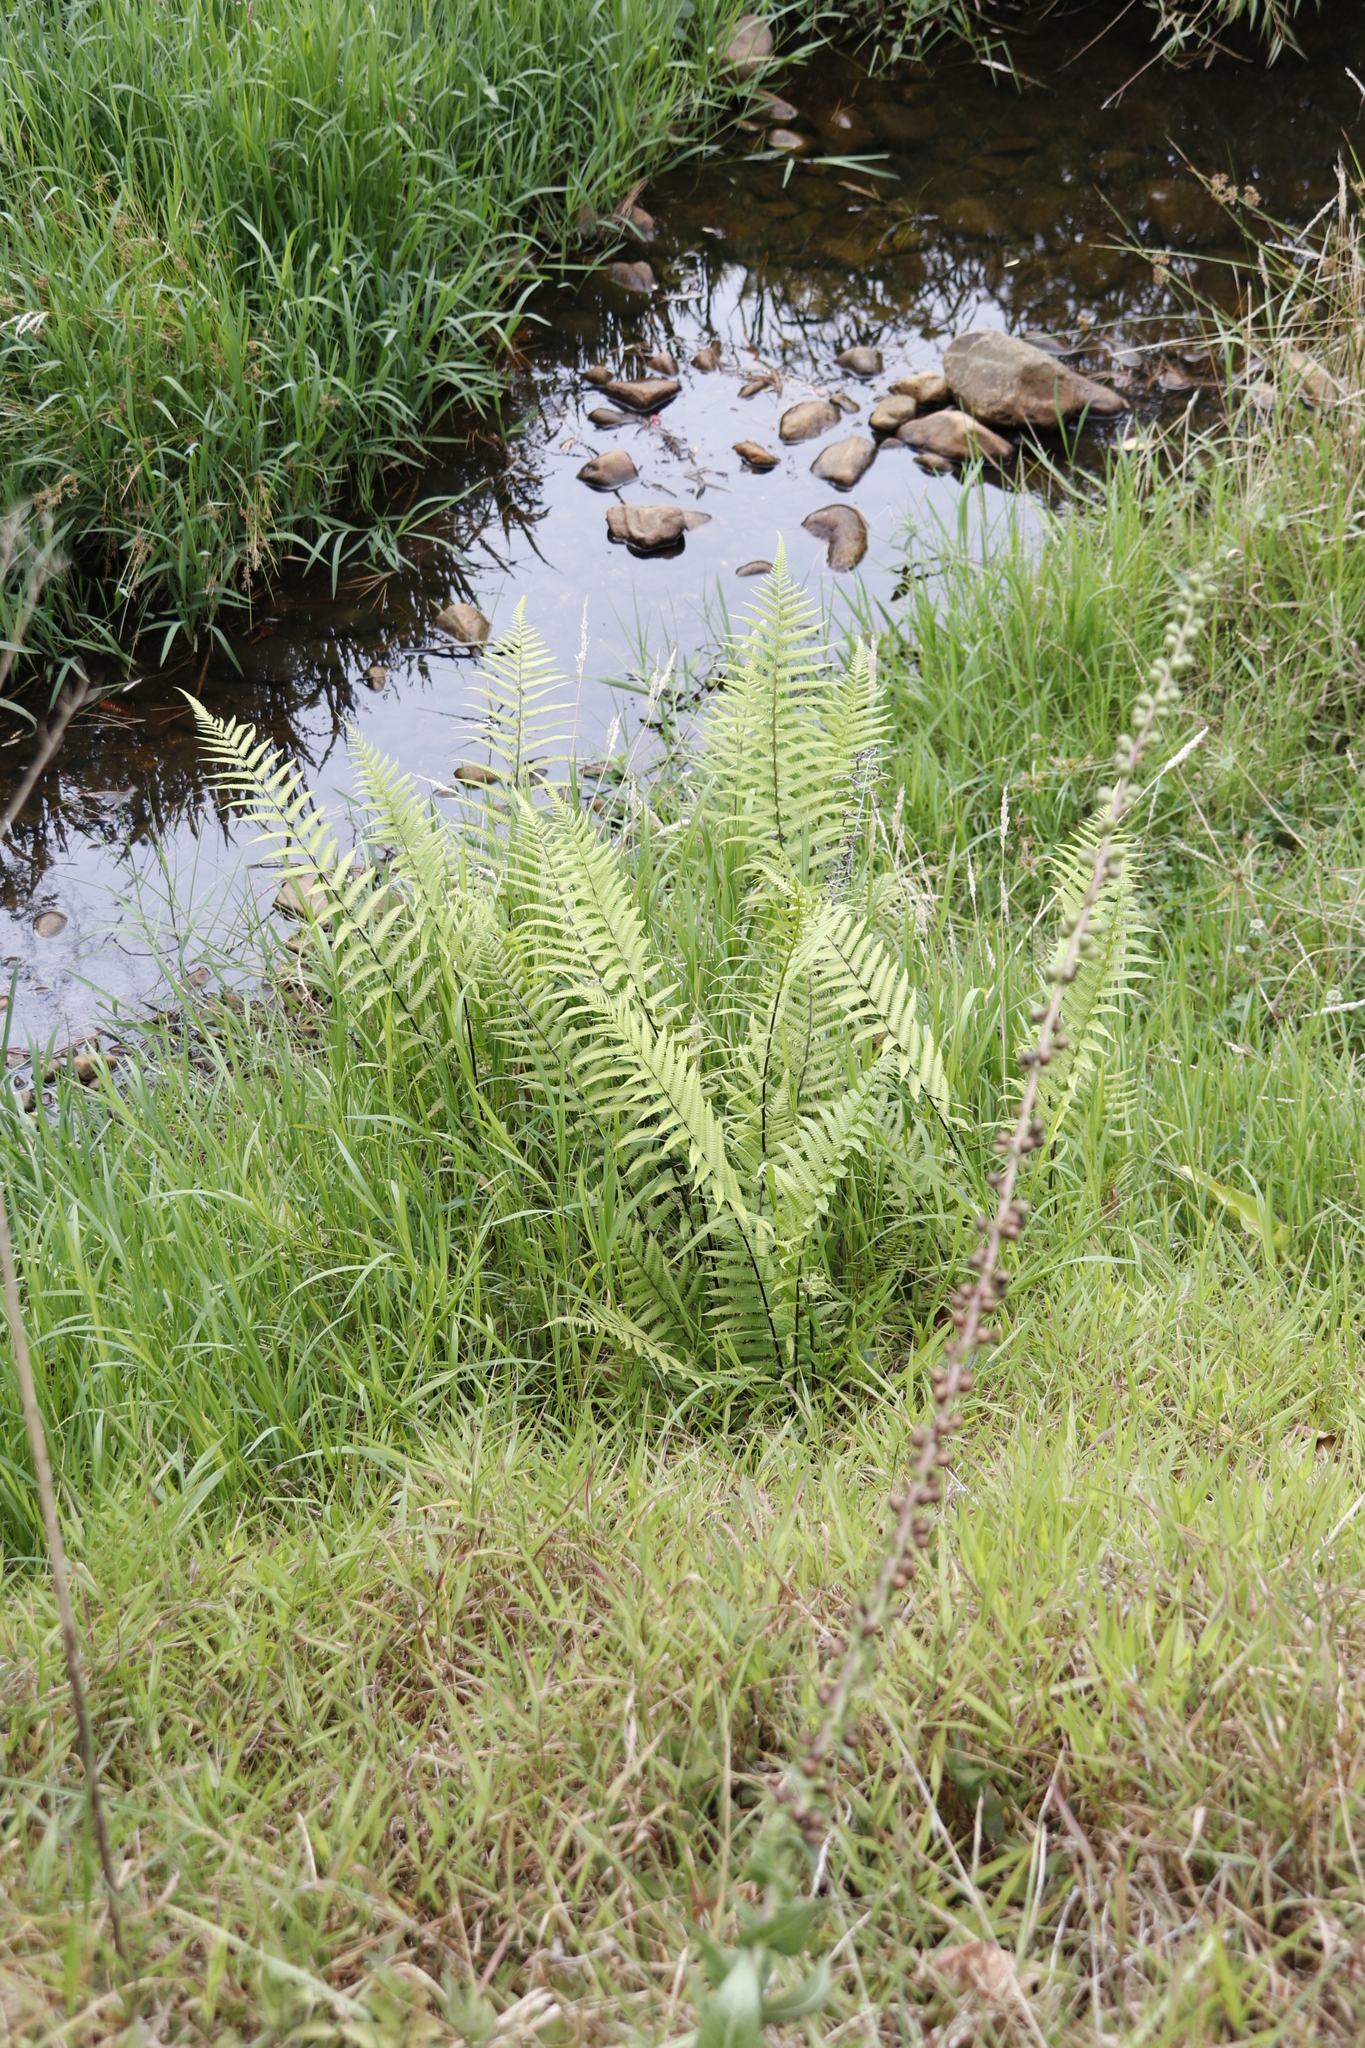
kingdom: Plantae
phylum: Tracheophyta
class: Polypodiopsida
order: Polypodiales
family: Thelypteridaceae
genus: Thelypteris
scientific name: Thelypteris confluens
